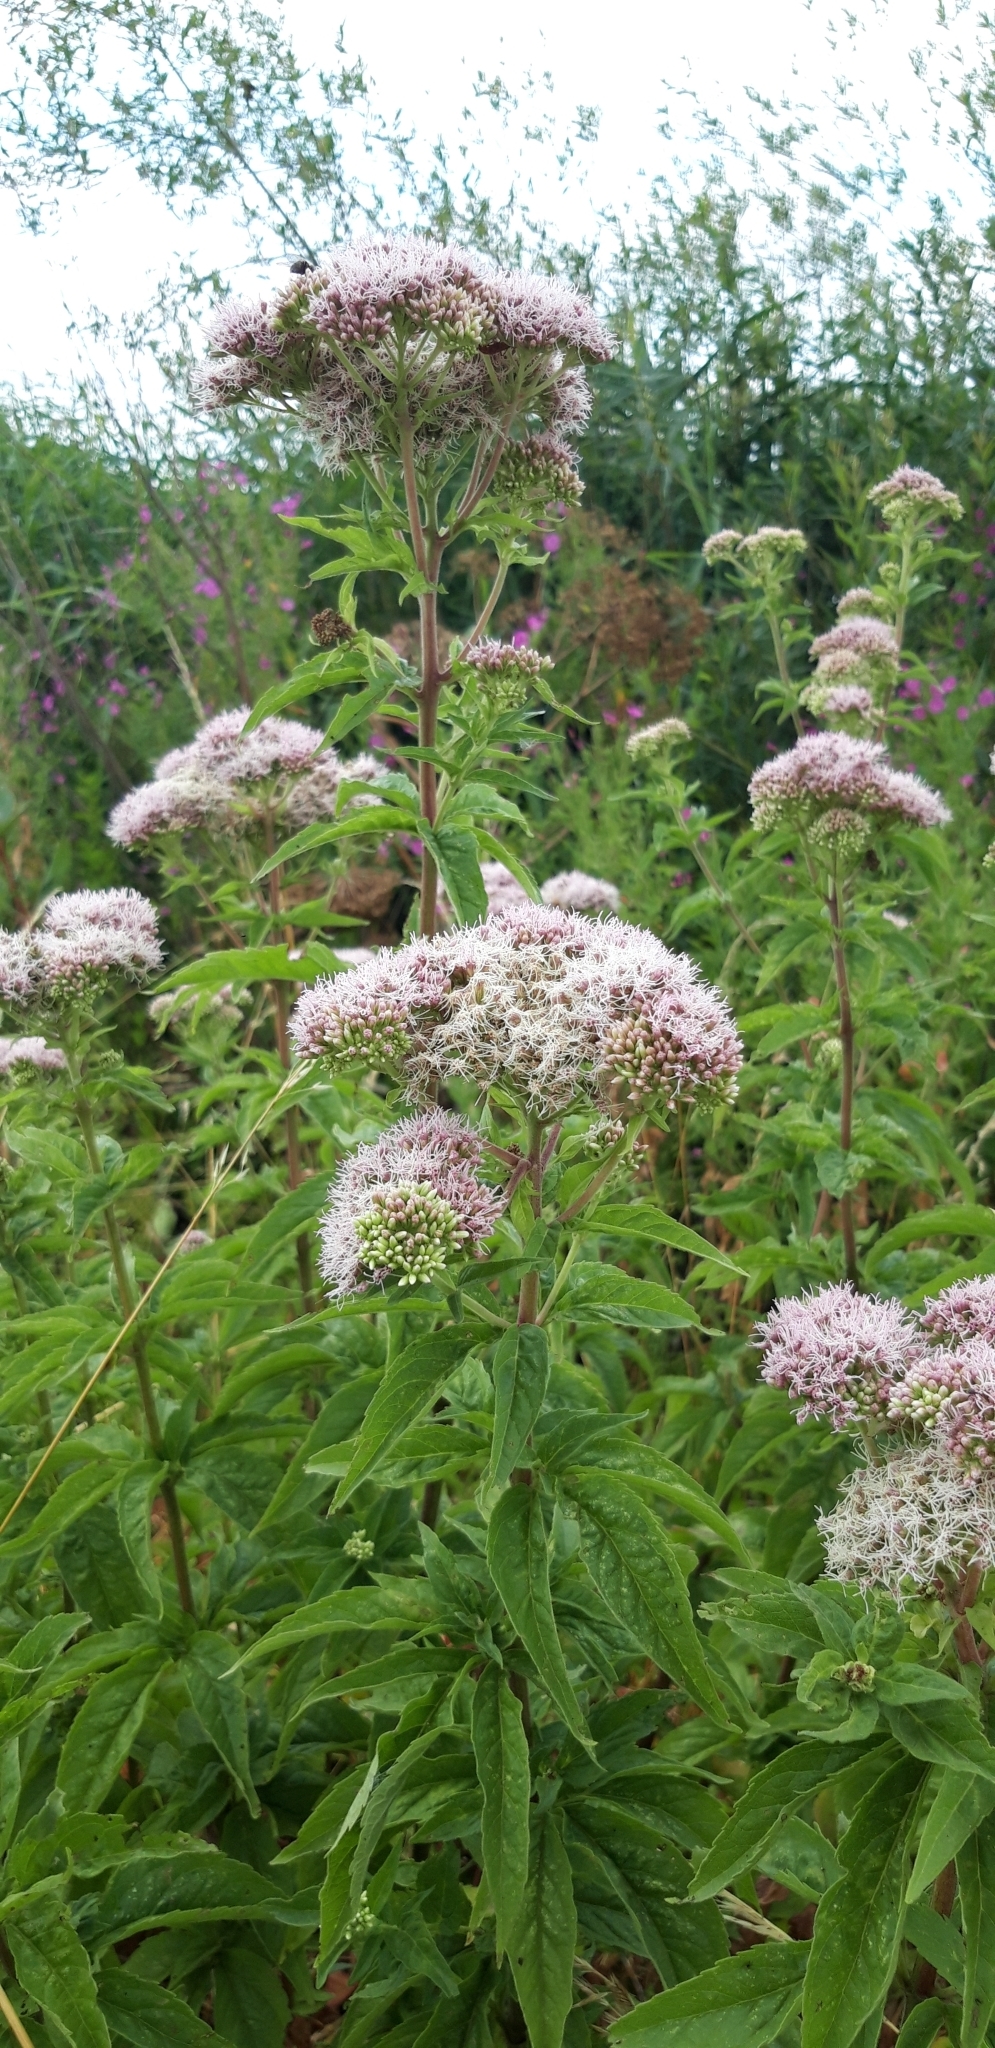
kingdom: Plantae
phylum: Tracheophyta
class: Magnoliopsida
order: Asterales
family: Asteraceae
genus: Eupatorium
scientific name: Eupatorium cannabinum
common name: Hemp-agrimony
